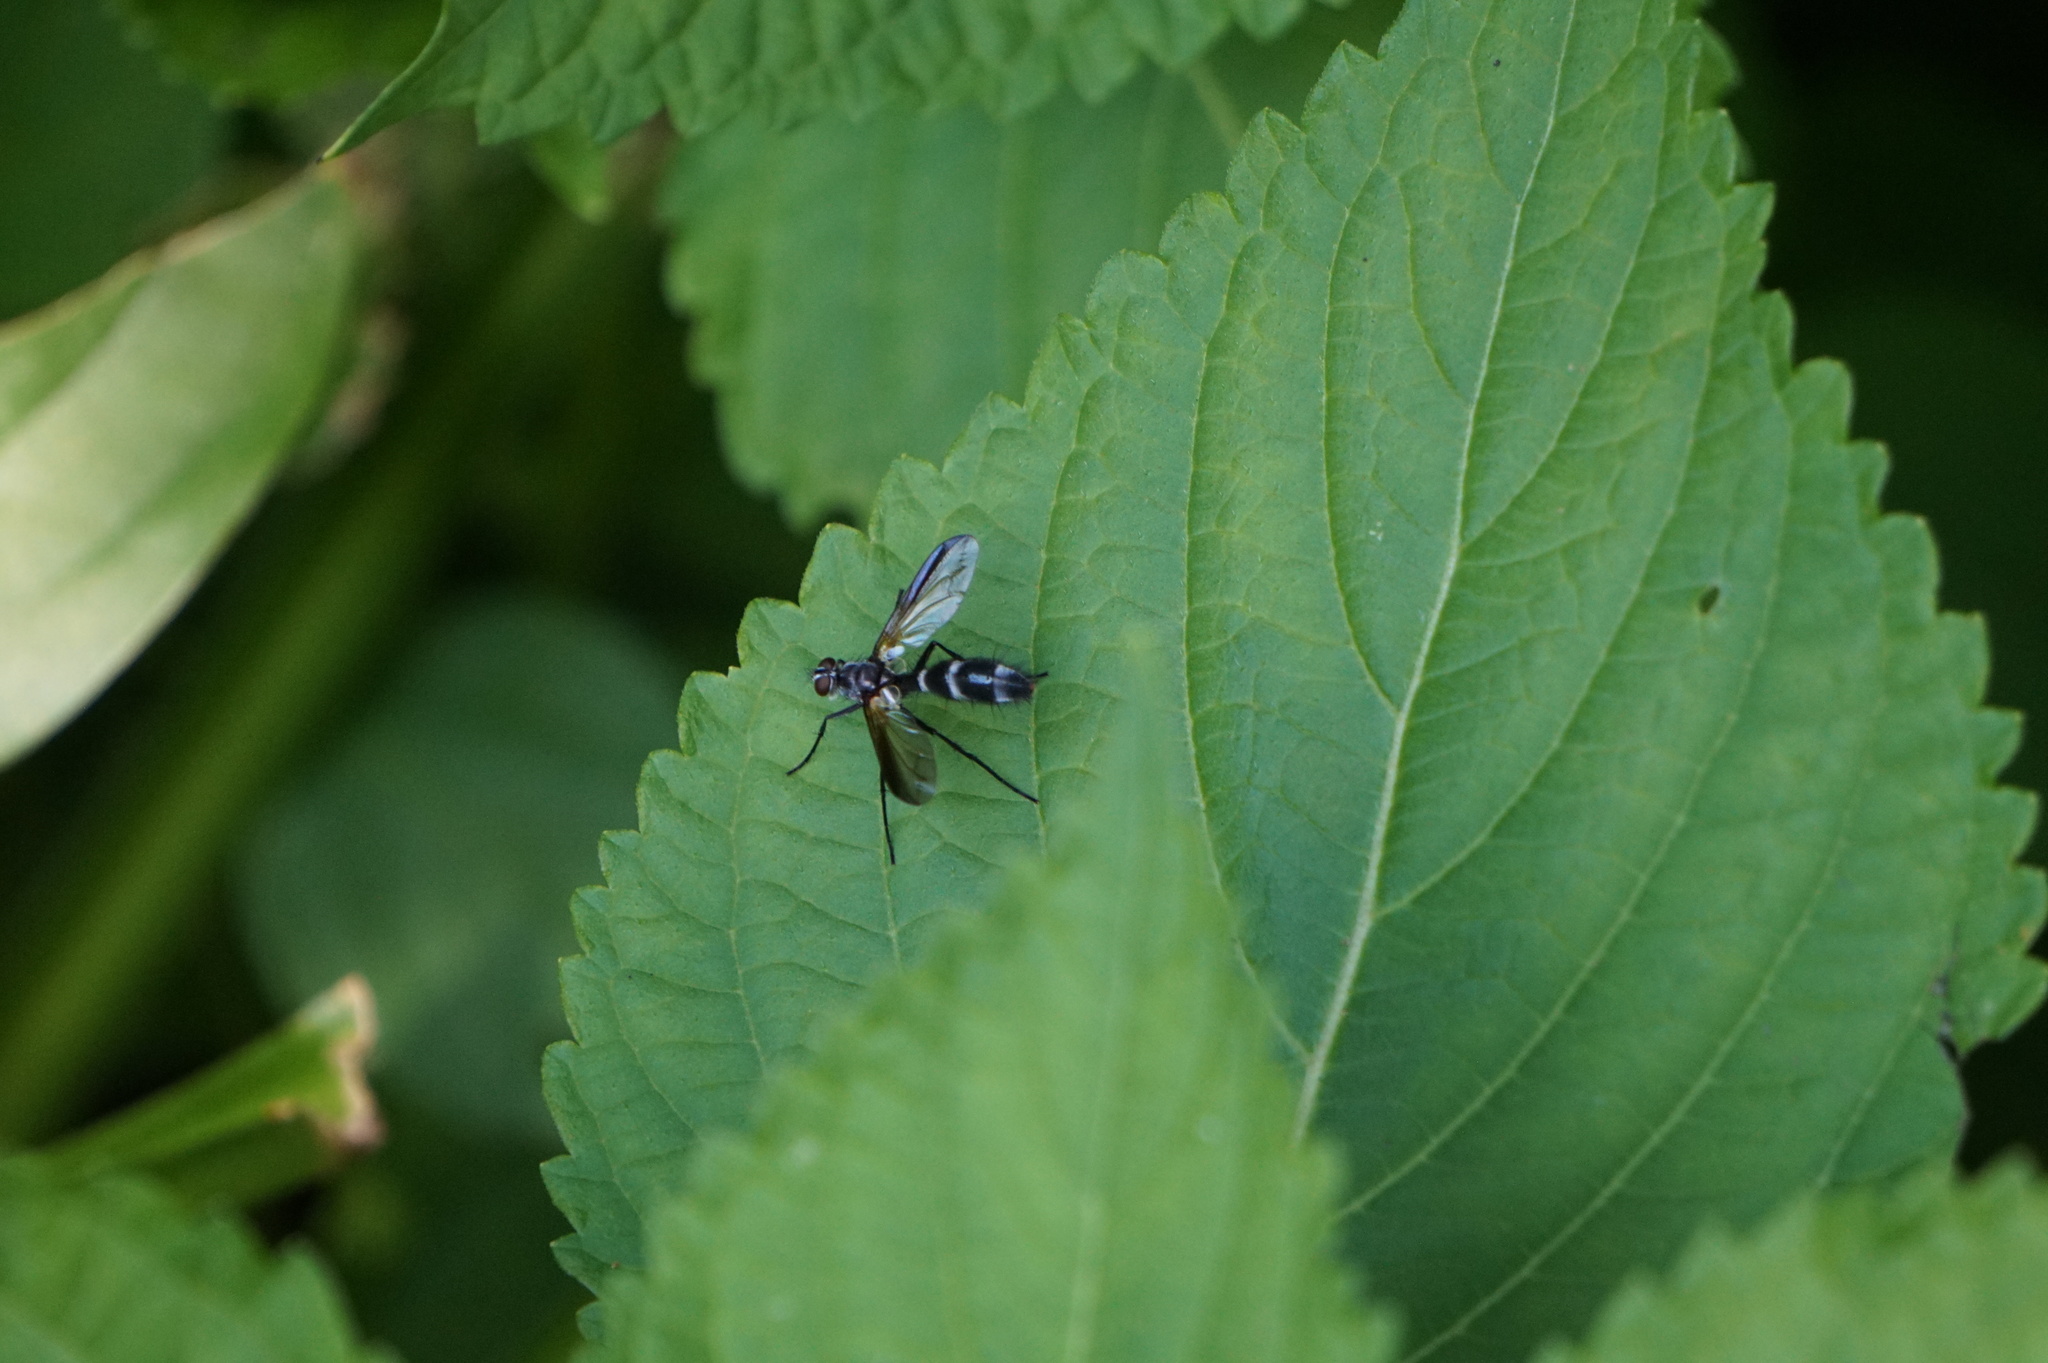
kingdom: Animalia
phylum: Arthropoda
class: Insecta
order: Diptera
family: Tachinidae
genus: Cordyligaster
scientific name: Cordyligaster septentrionalis
